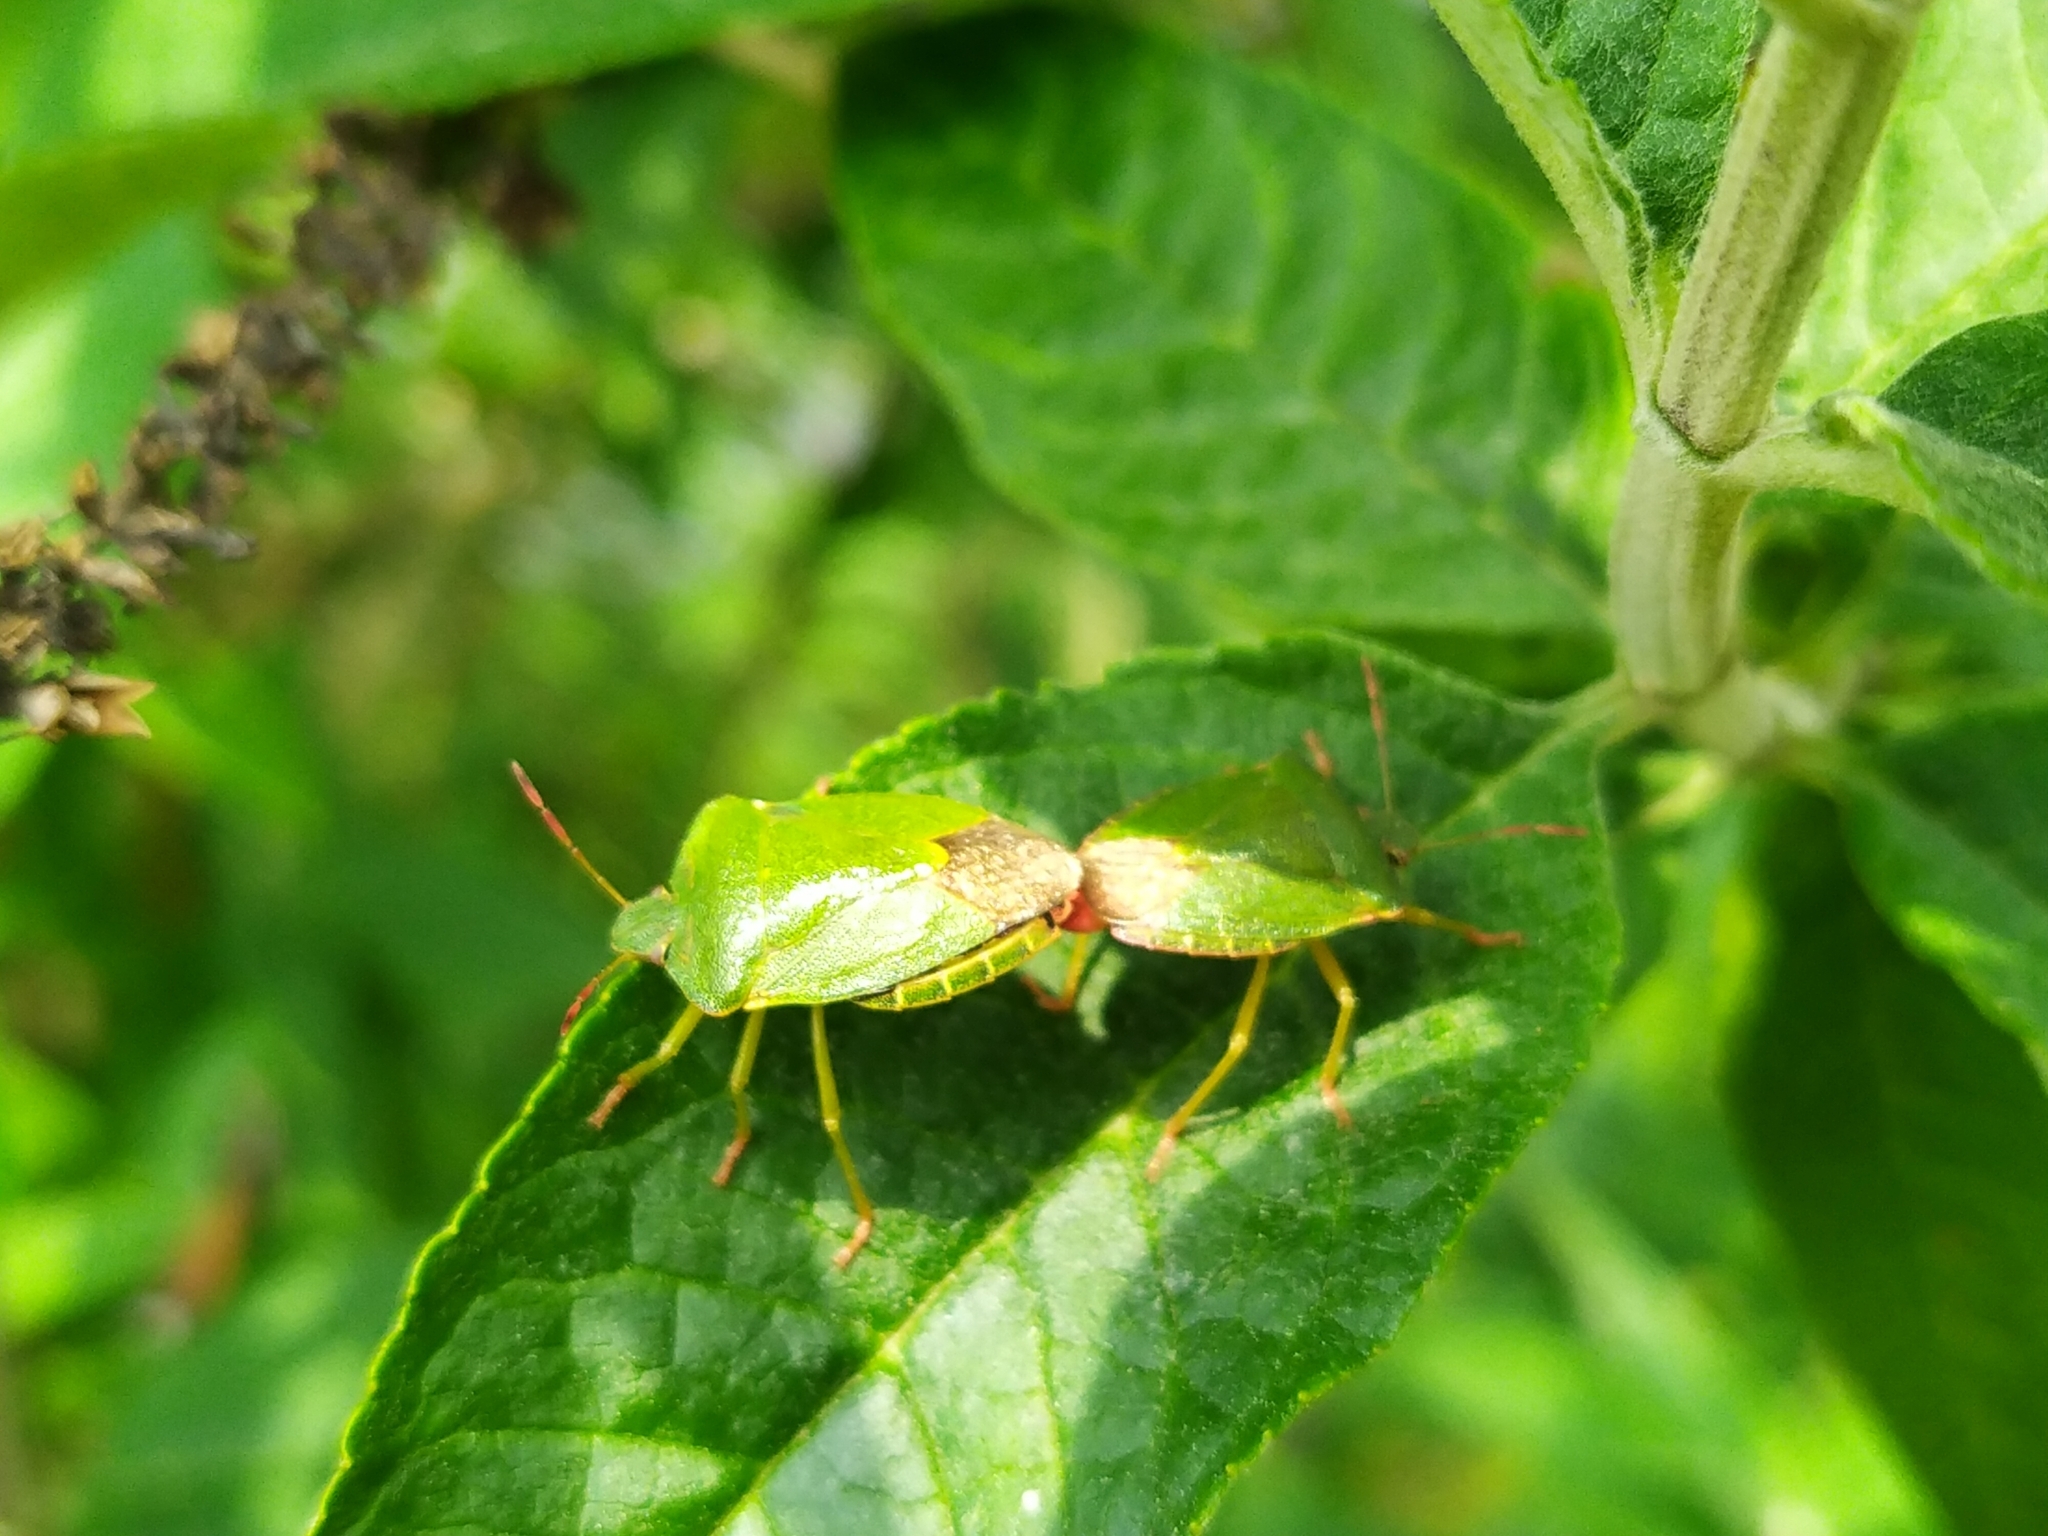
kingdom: Animalia
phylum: Arthropoda
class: Insecta
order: Hemiptera
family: Pentatomidae
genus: Palomena
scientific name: Palomena prasina
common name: Green shieldbug
